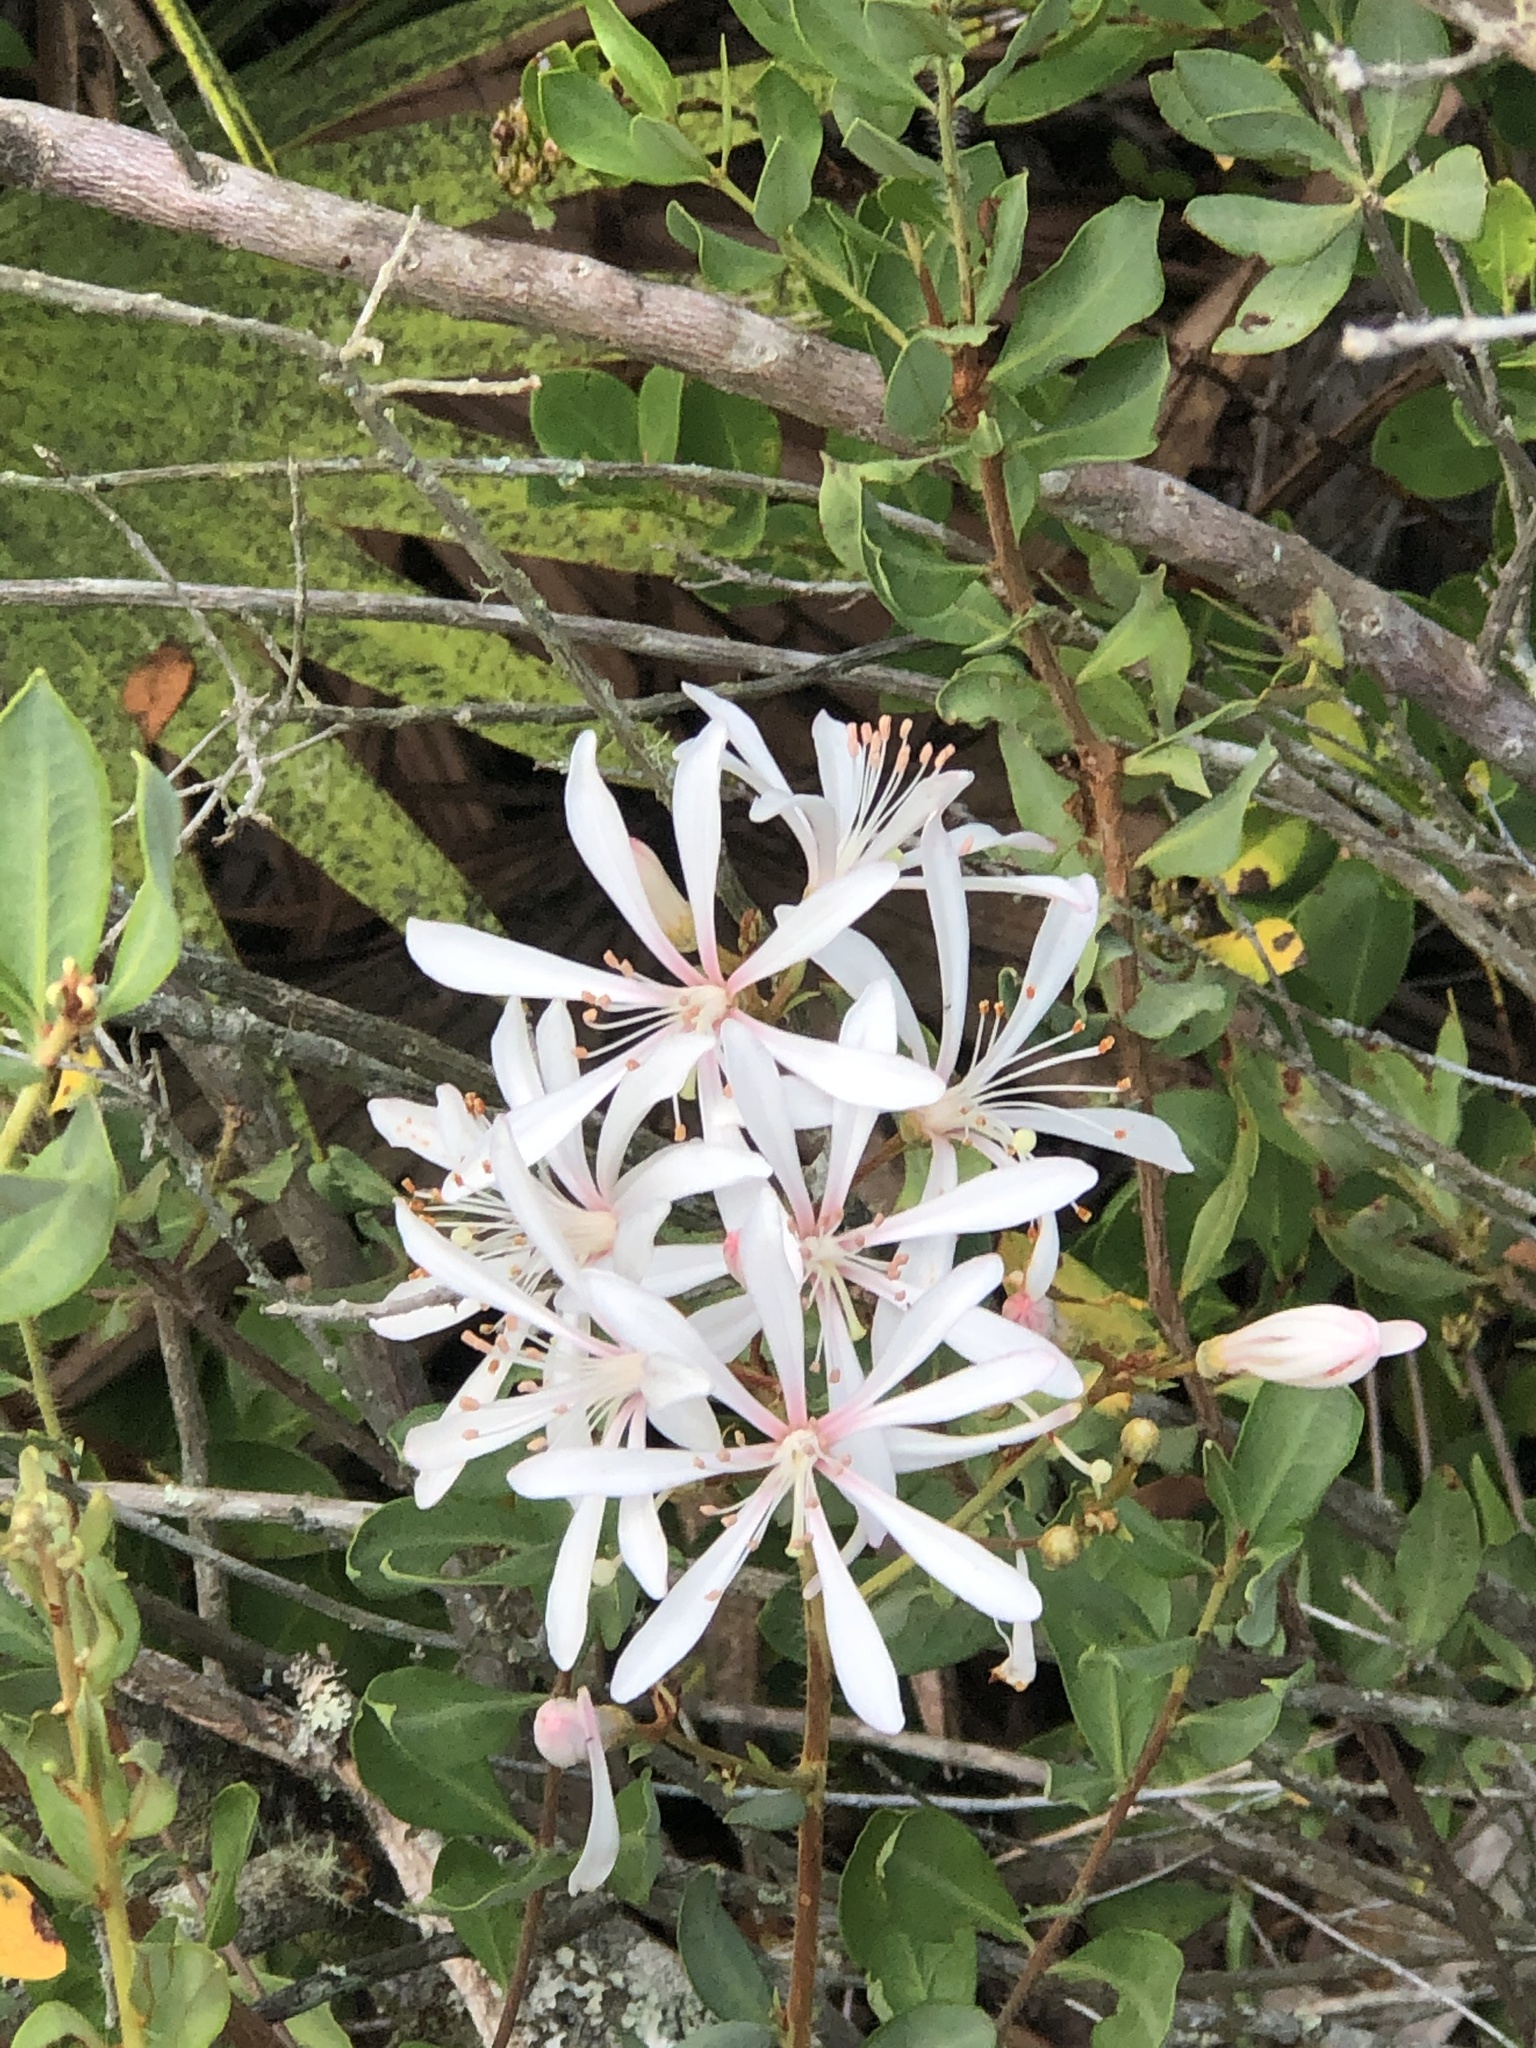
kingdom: Plantae
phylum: Tracheophyta
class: Magnoliopsida
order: Ericales
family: Ericaceae
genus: Bejaria
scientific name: Bejaria racemosa
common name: Tarflower
